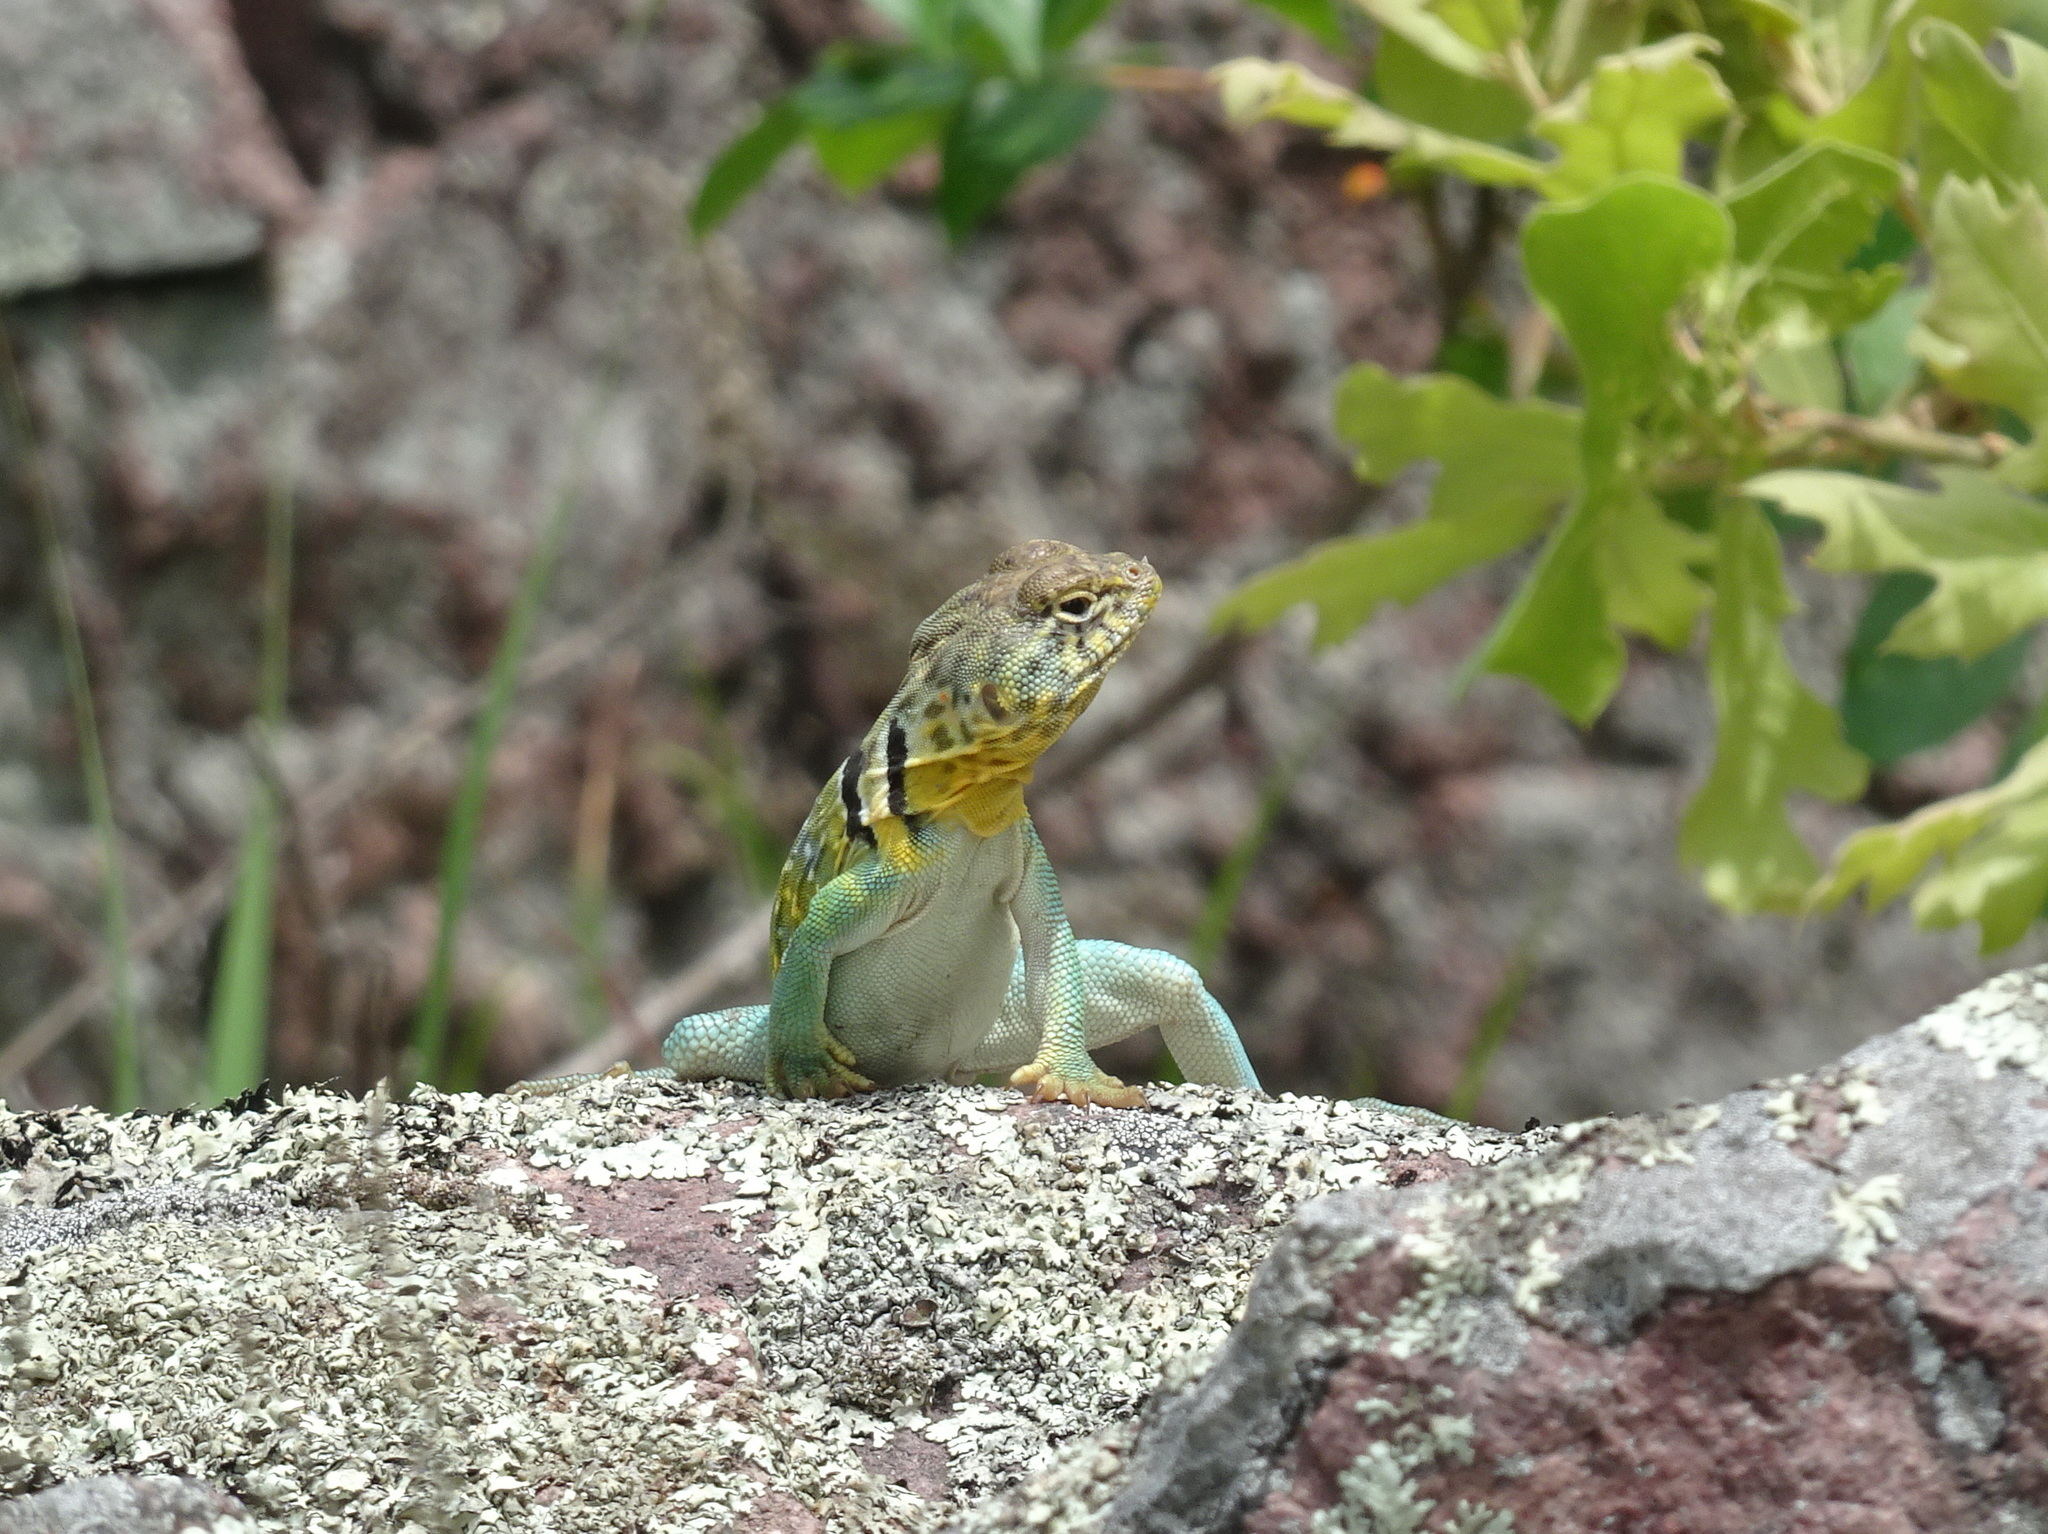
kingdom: Animalia
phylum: Chordata
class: Squamata
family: Crotaphytidae
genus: Crotaphytus
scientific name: Crotaphytus collaris
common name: Collared lizard
